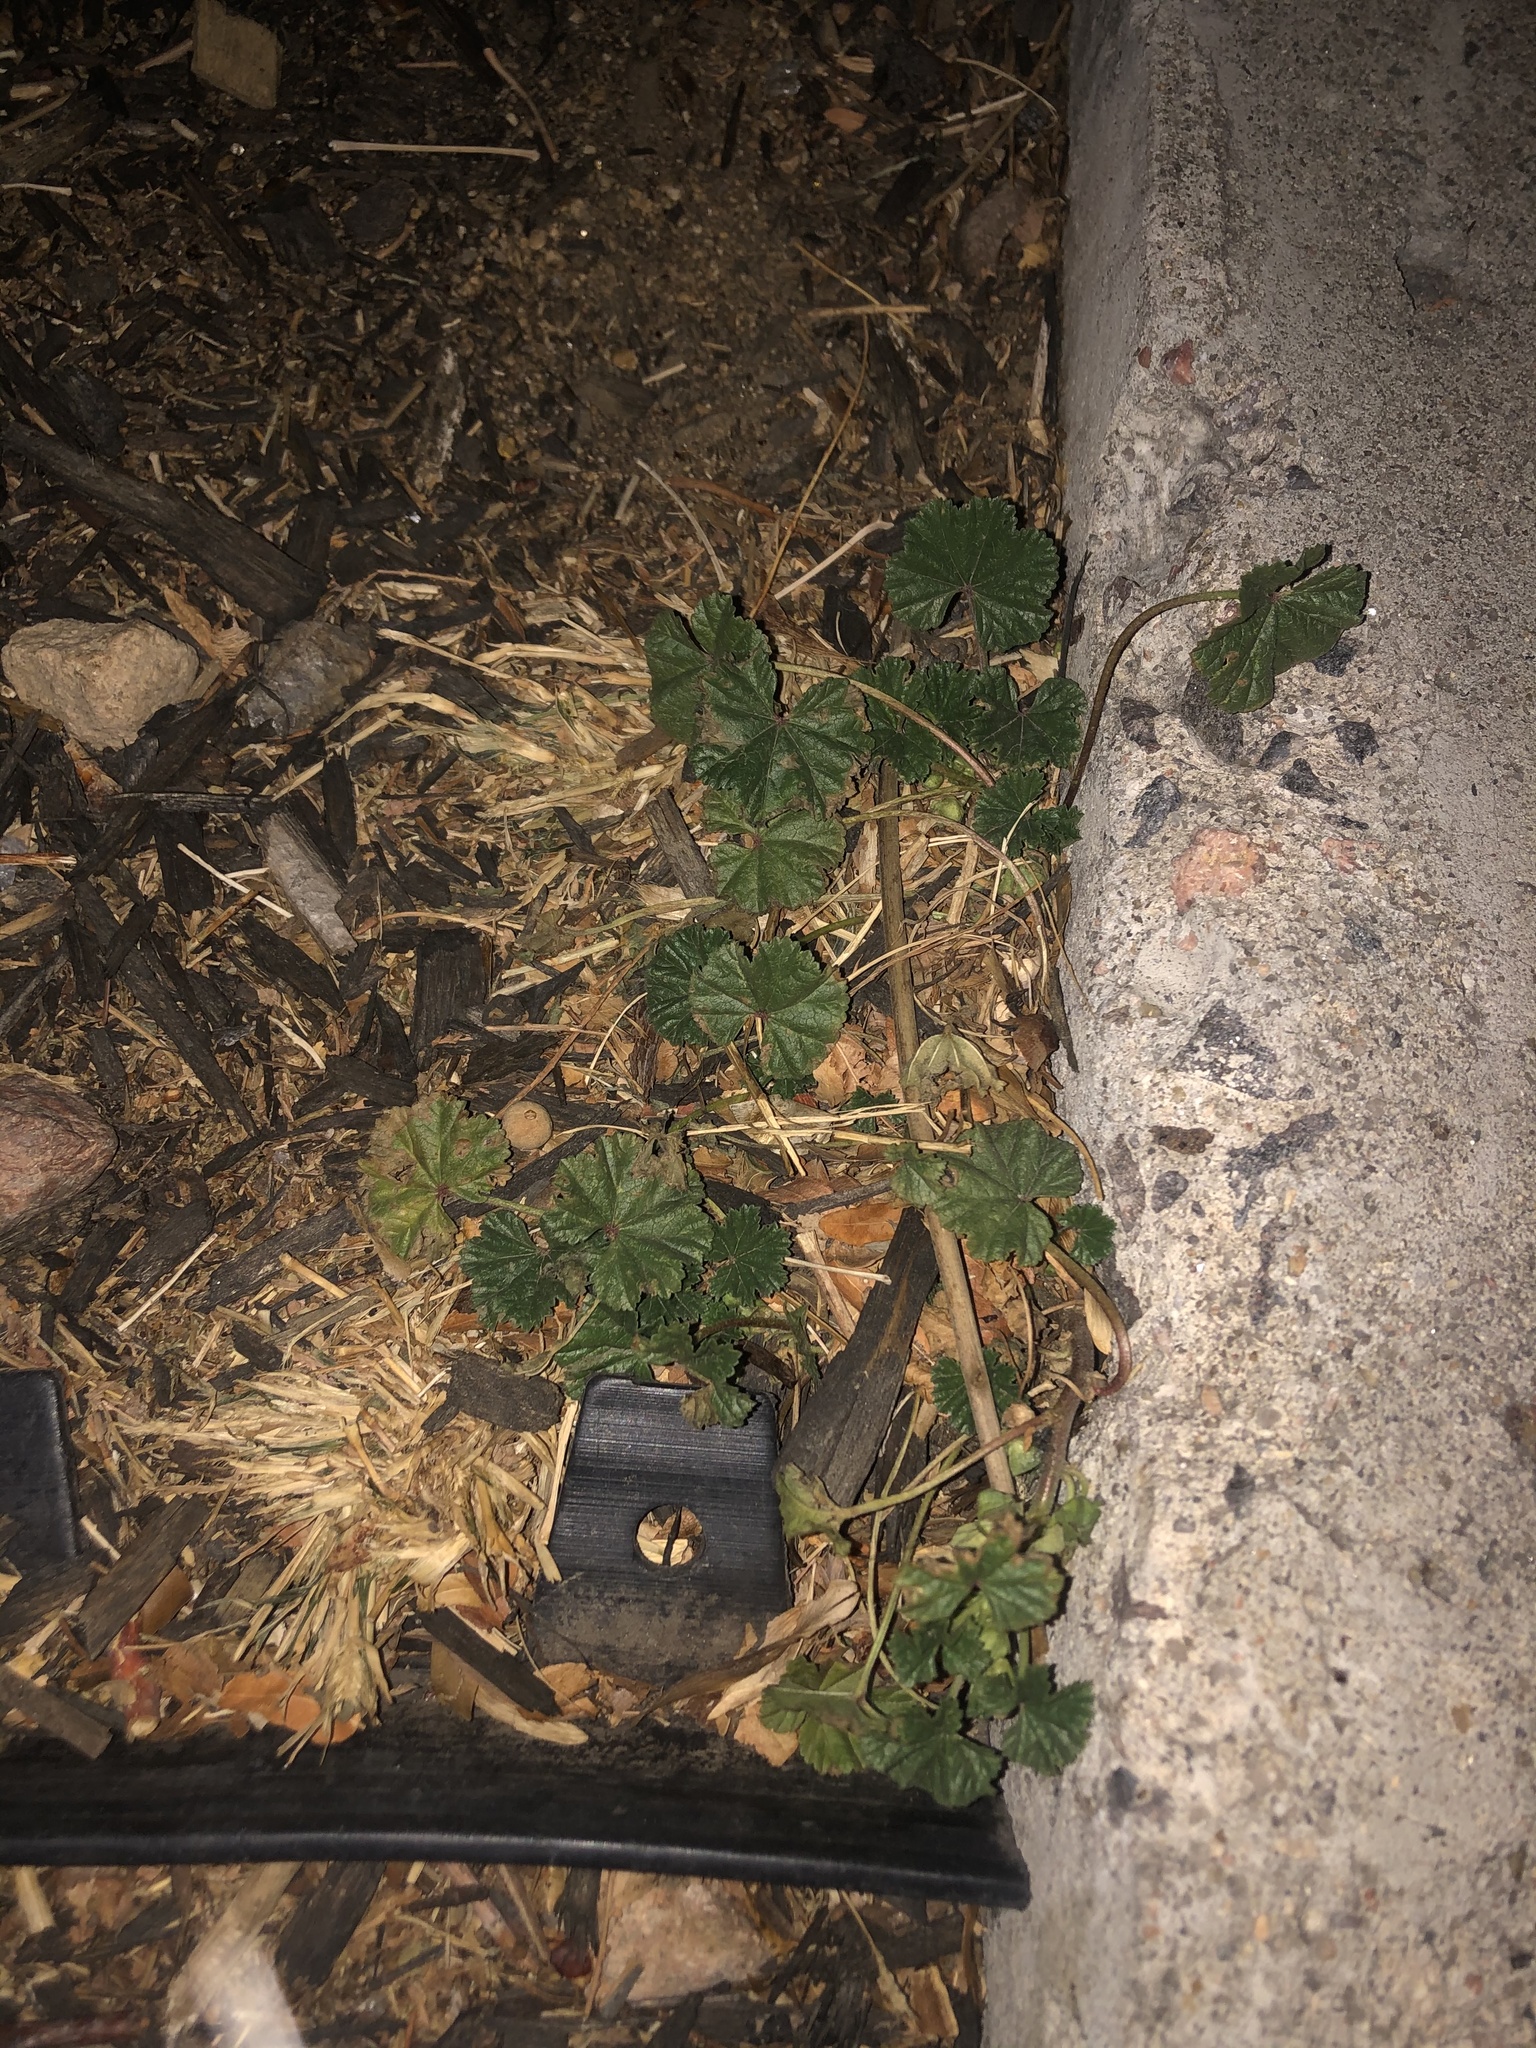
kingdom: Plantae
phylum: Tracheophyta
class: Magnoliopsida
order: Malvales
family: Malvaceae
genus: Malva
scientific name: Malva neglecta
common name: Common mallow
